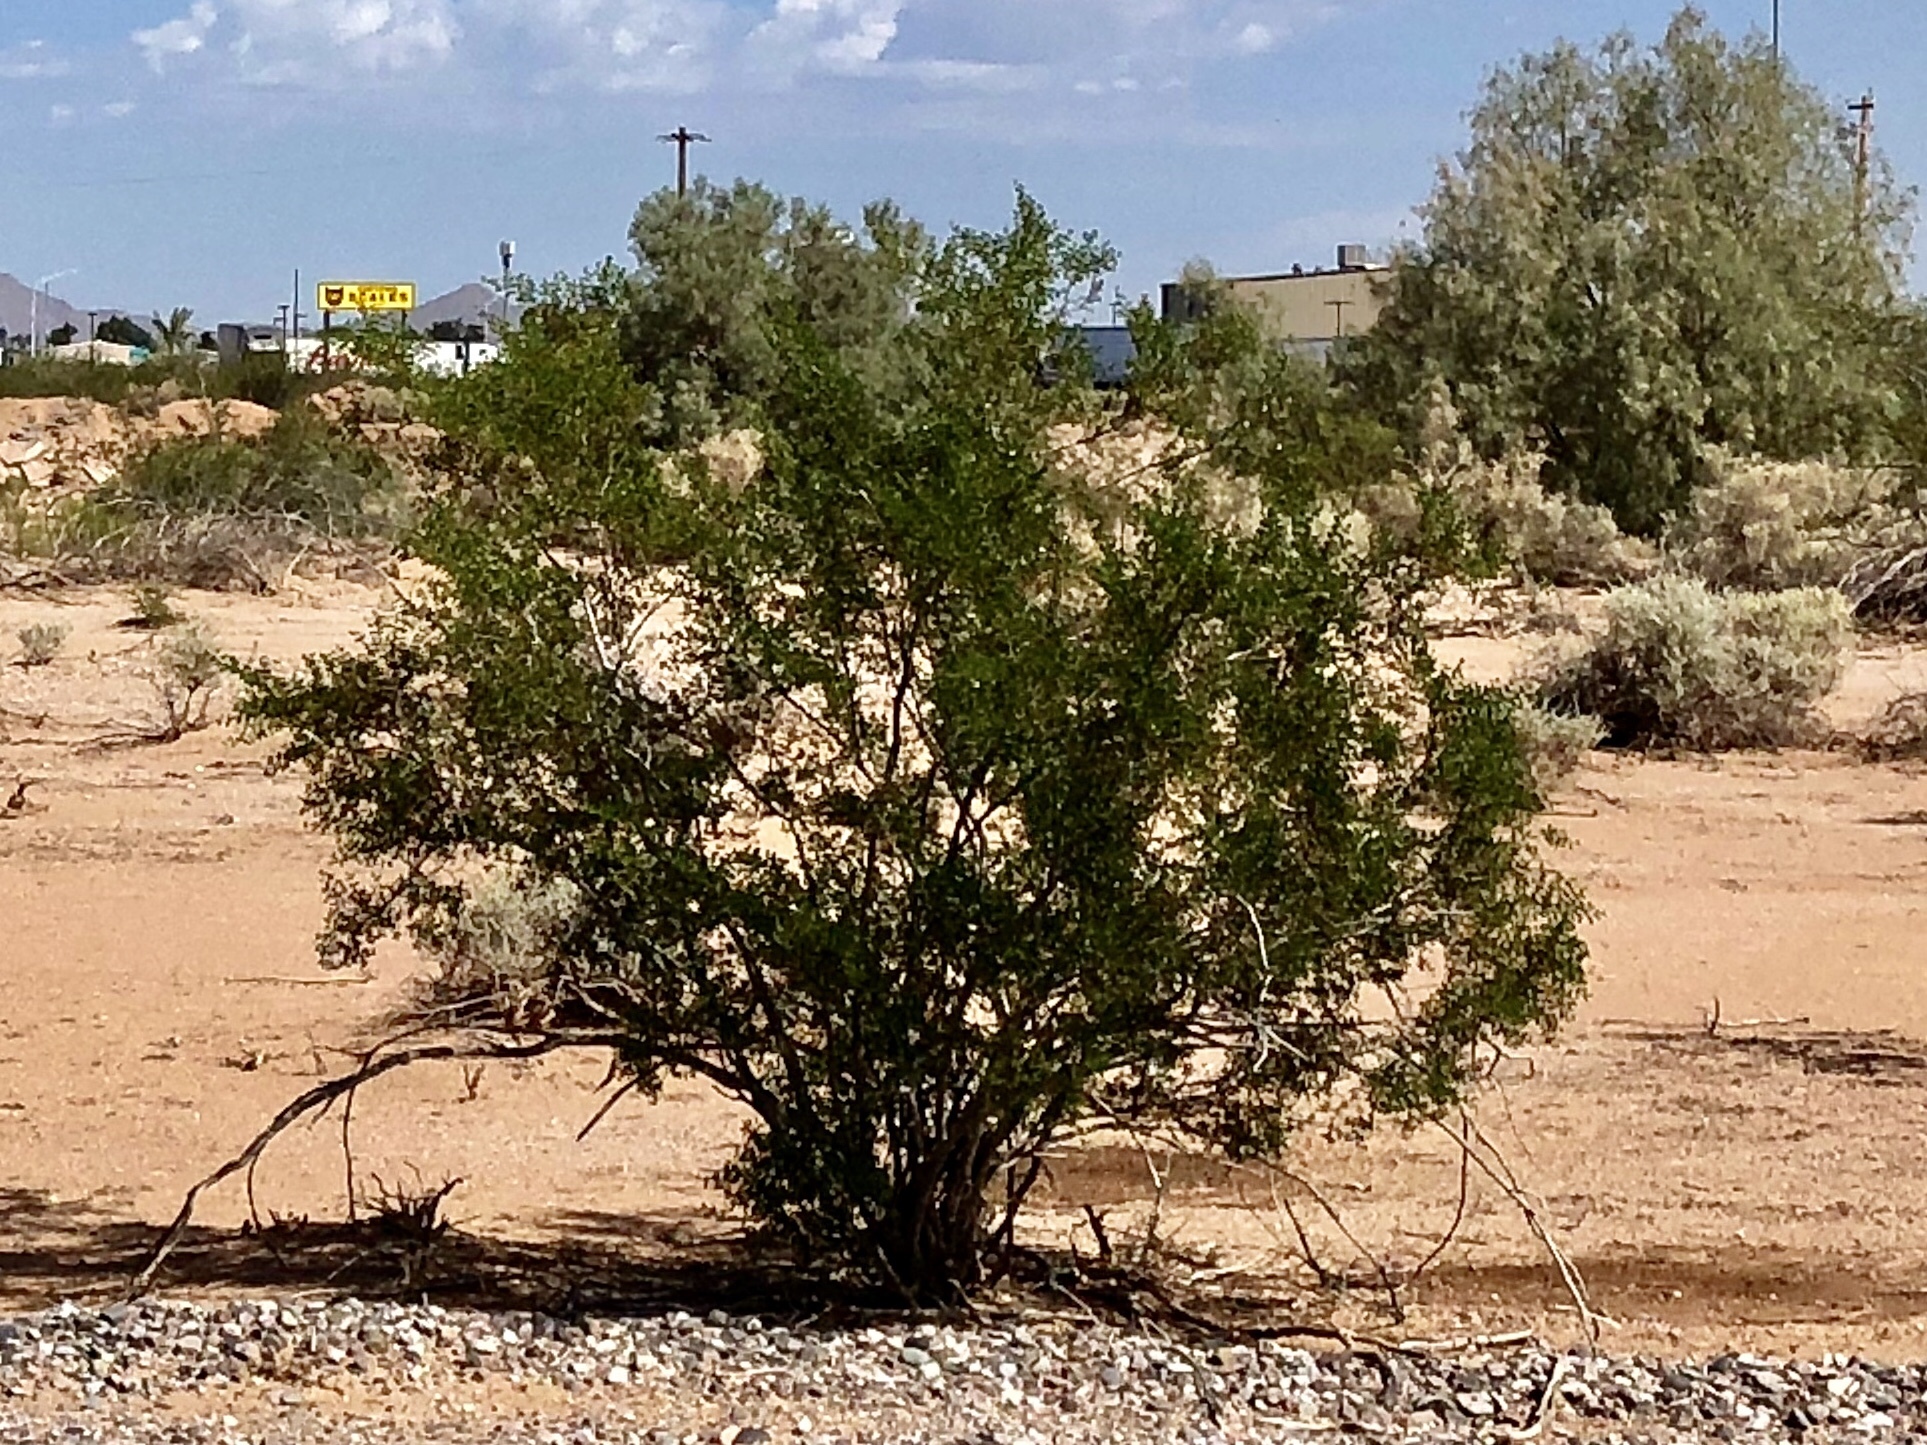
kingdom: Plantae
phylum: Tracheophyta
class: Magnoliopsida
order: Zygophyllales
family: Zygophyllaceae
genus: Larrea
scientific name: Larrea tridentata
